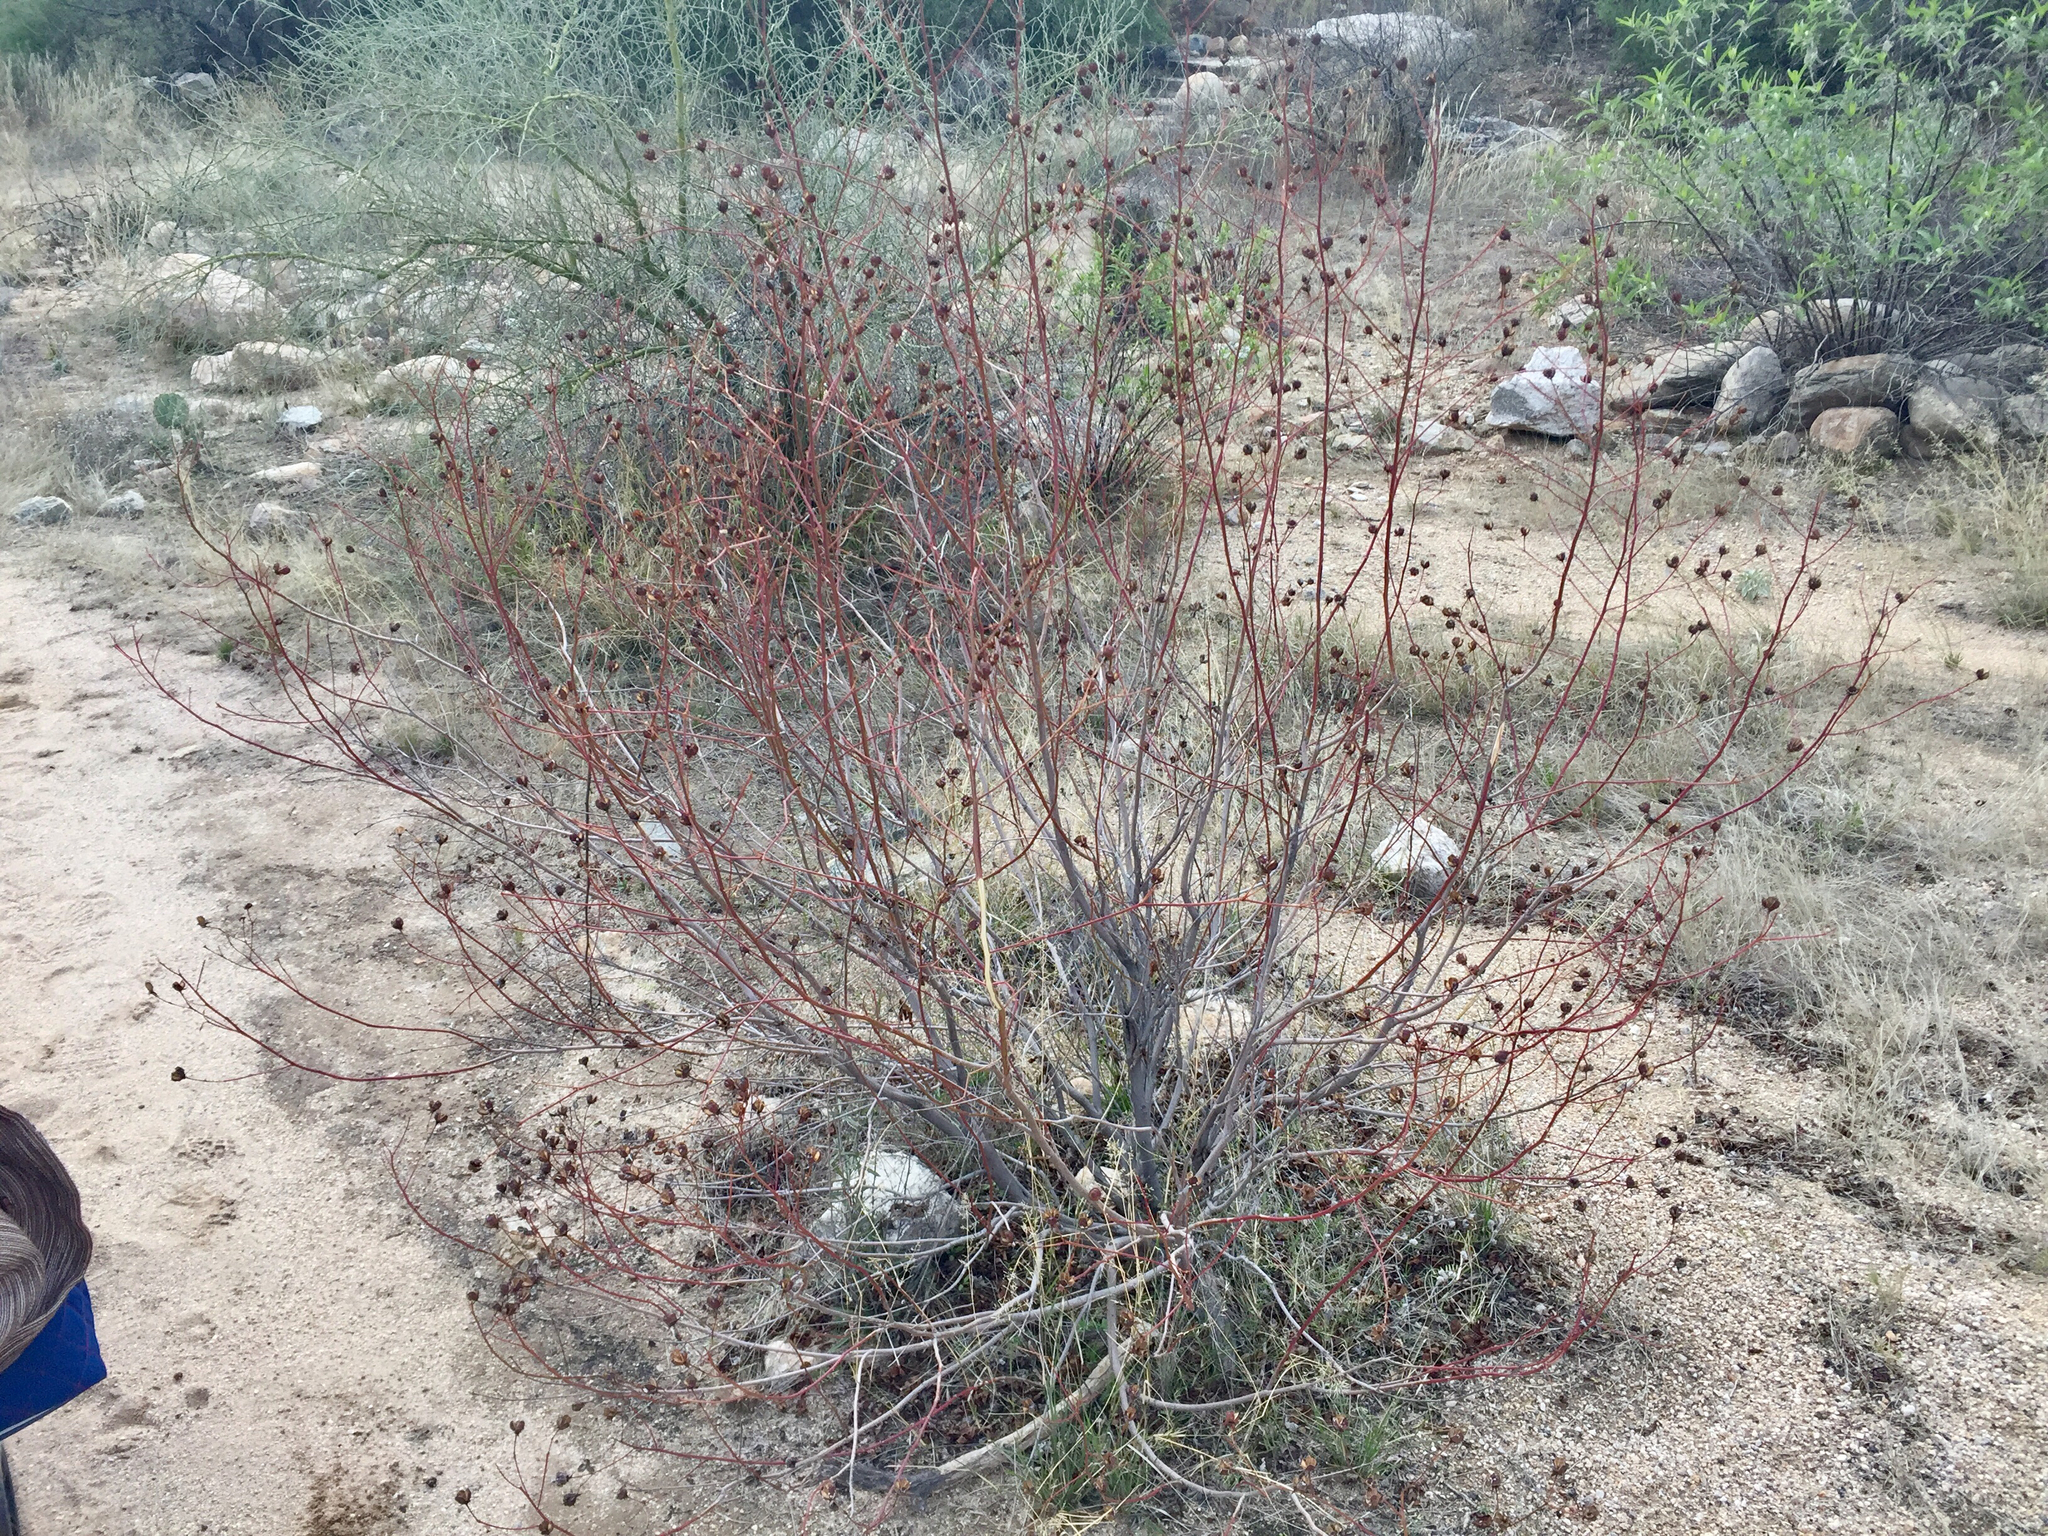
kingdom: Plantae
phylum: Tracheophyta
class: Magnoliopsida
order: Malvales
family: Malvaceae
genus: Gossypium
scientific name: Gossypium thurberi
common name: Desert cotton
